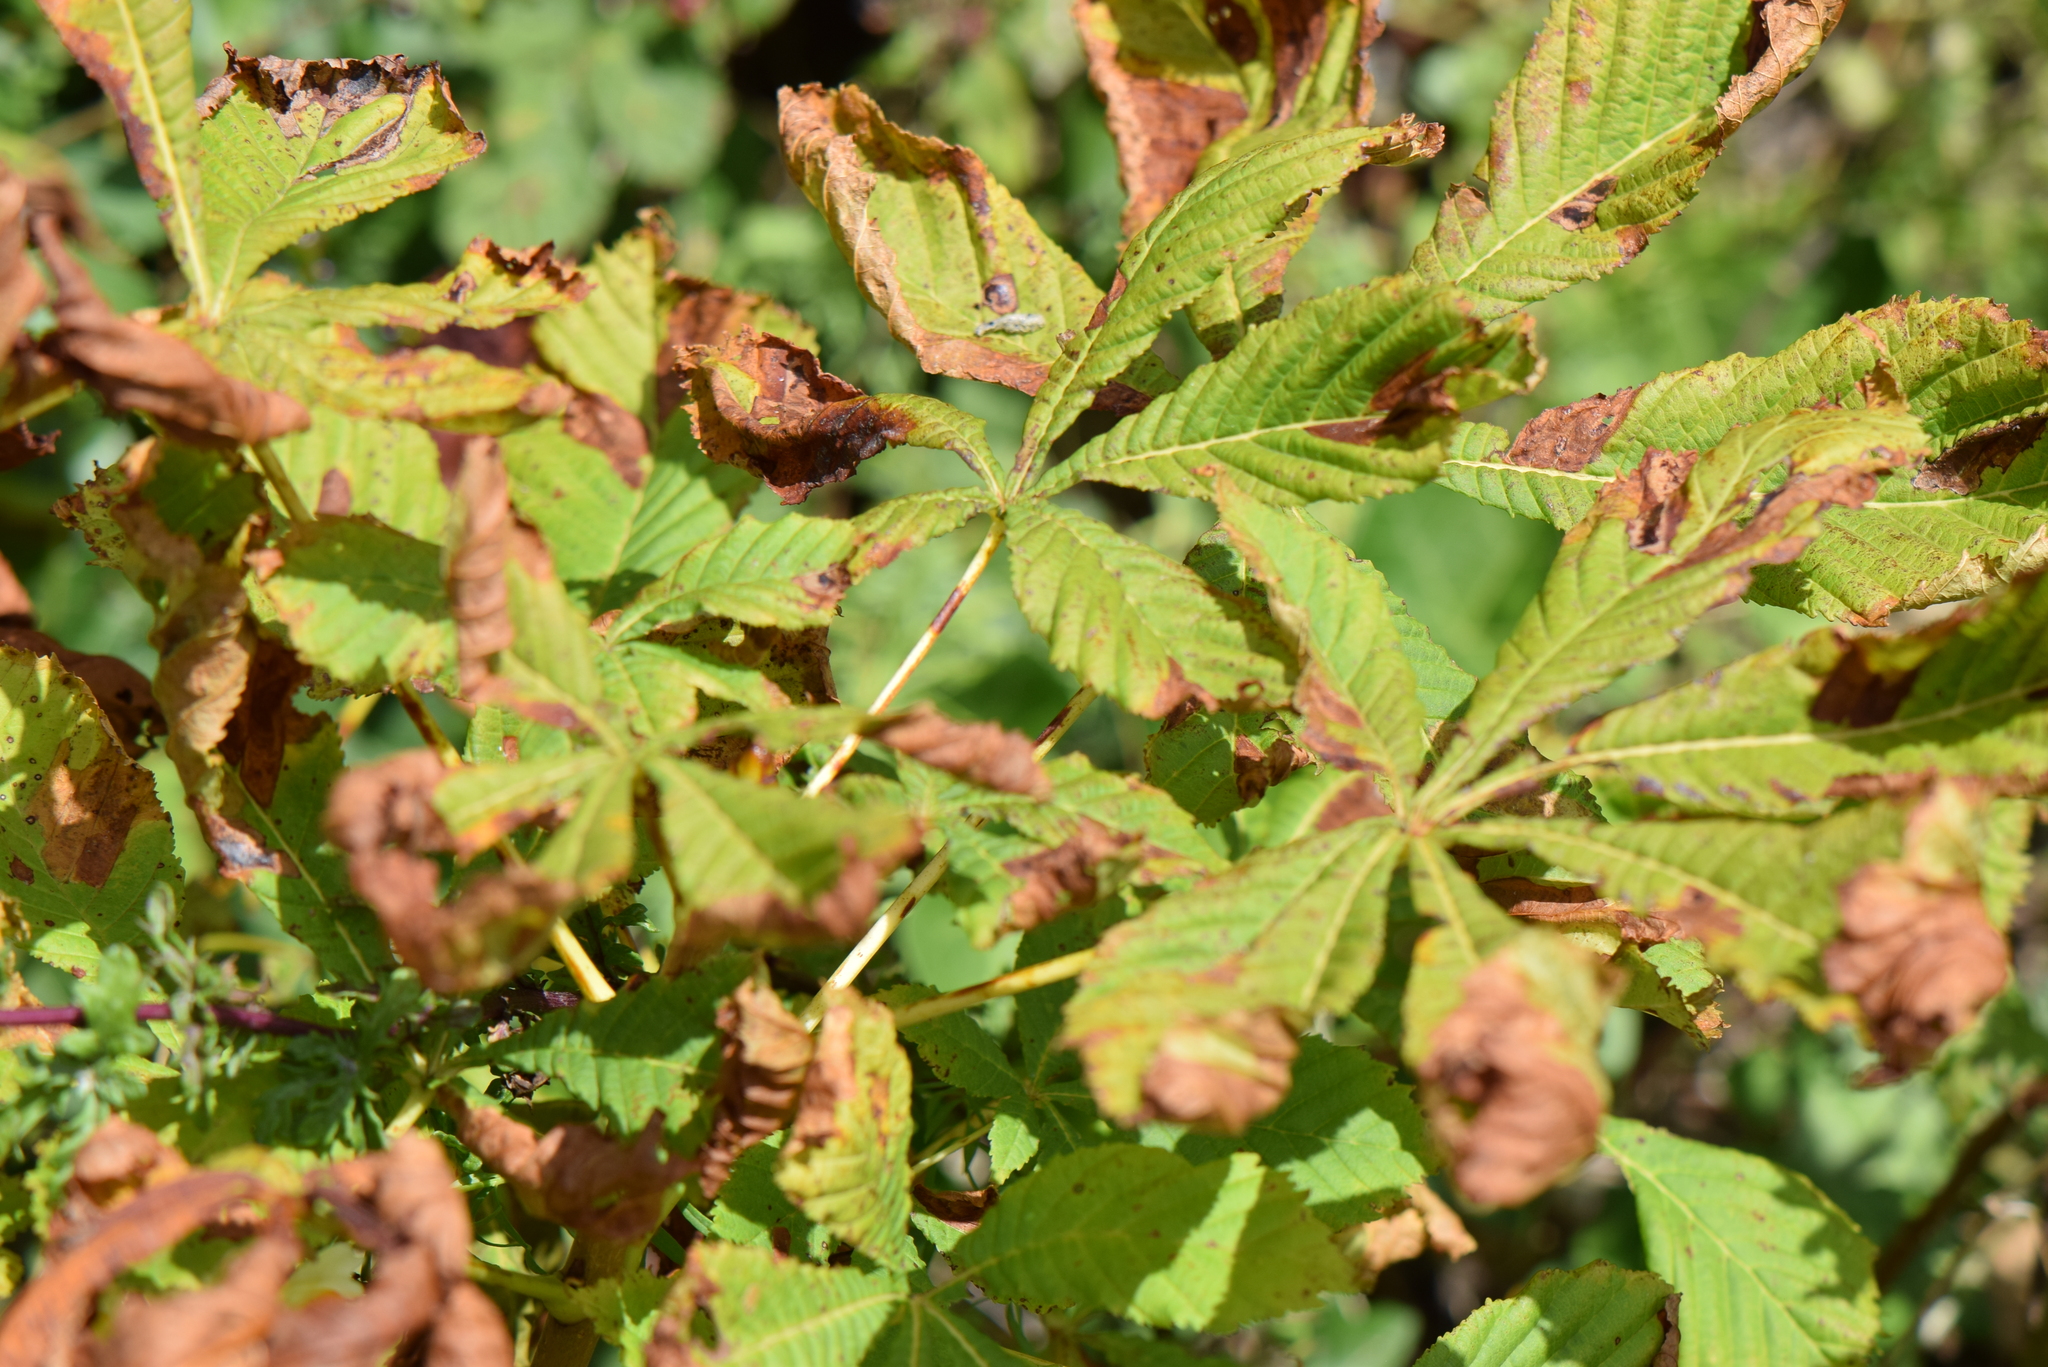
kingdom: Plantae
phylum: Tracheophyta
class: Magnoliopsida
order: Sapindales
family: Sapindaceae
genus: Aesculus
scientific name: Aesculus hippocastanum
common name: Horse-chestnut
